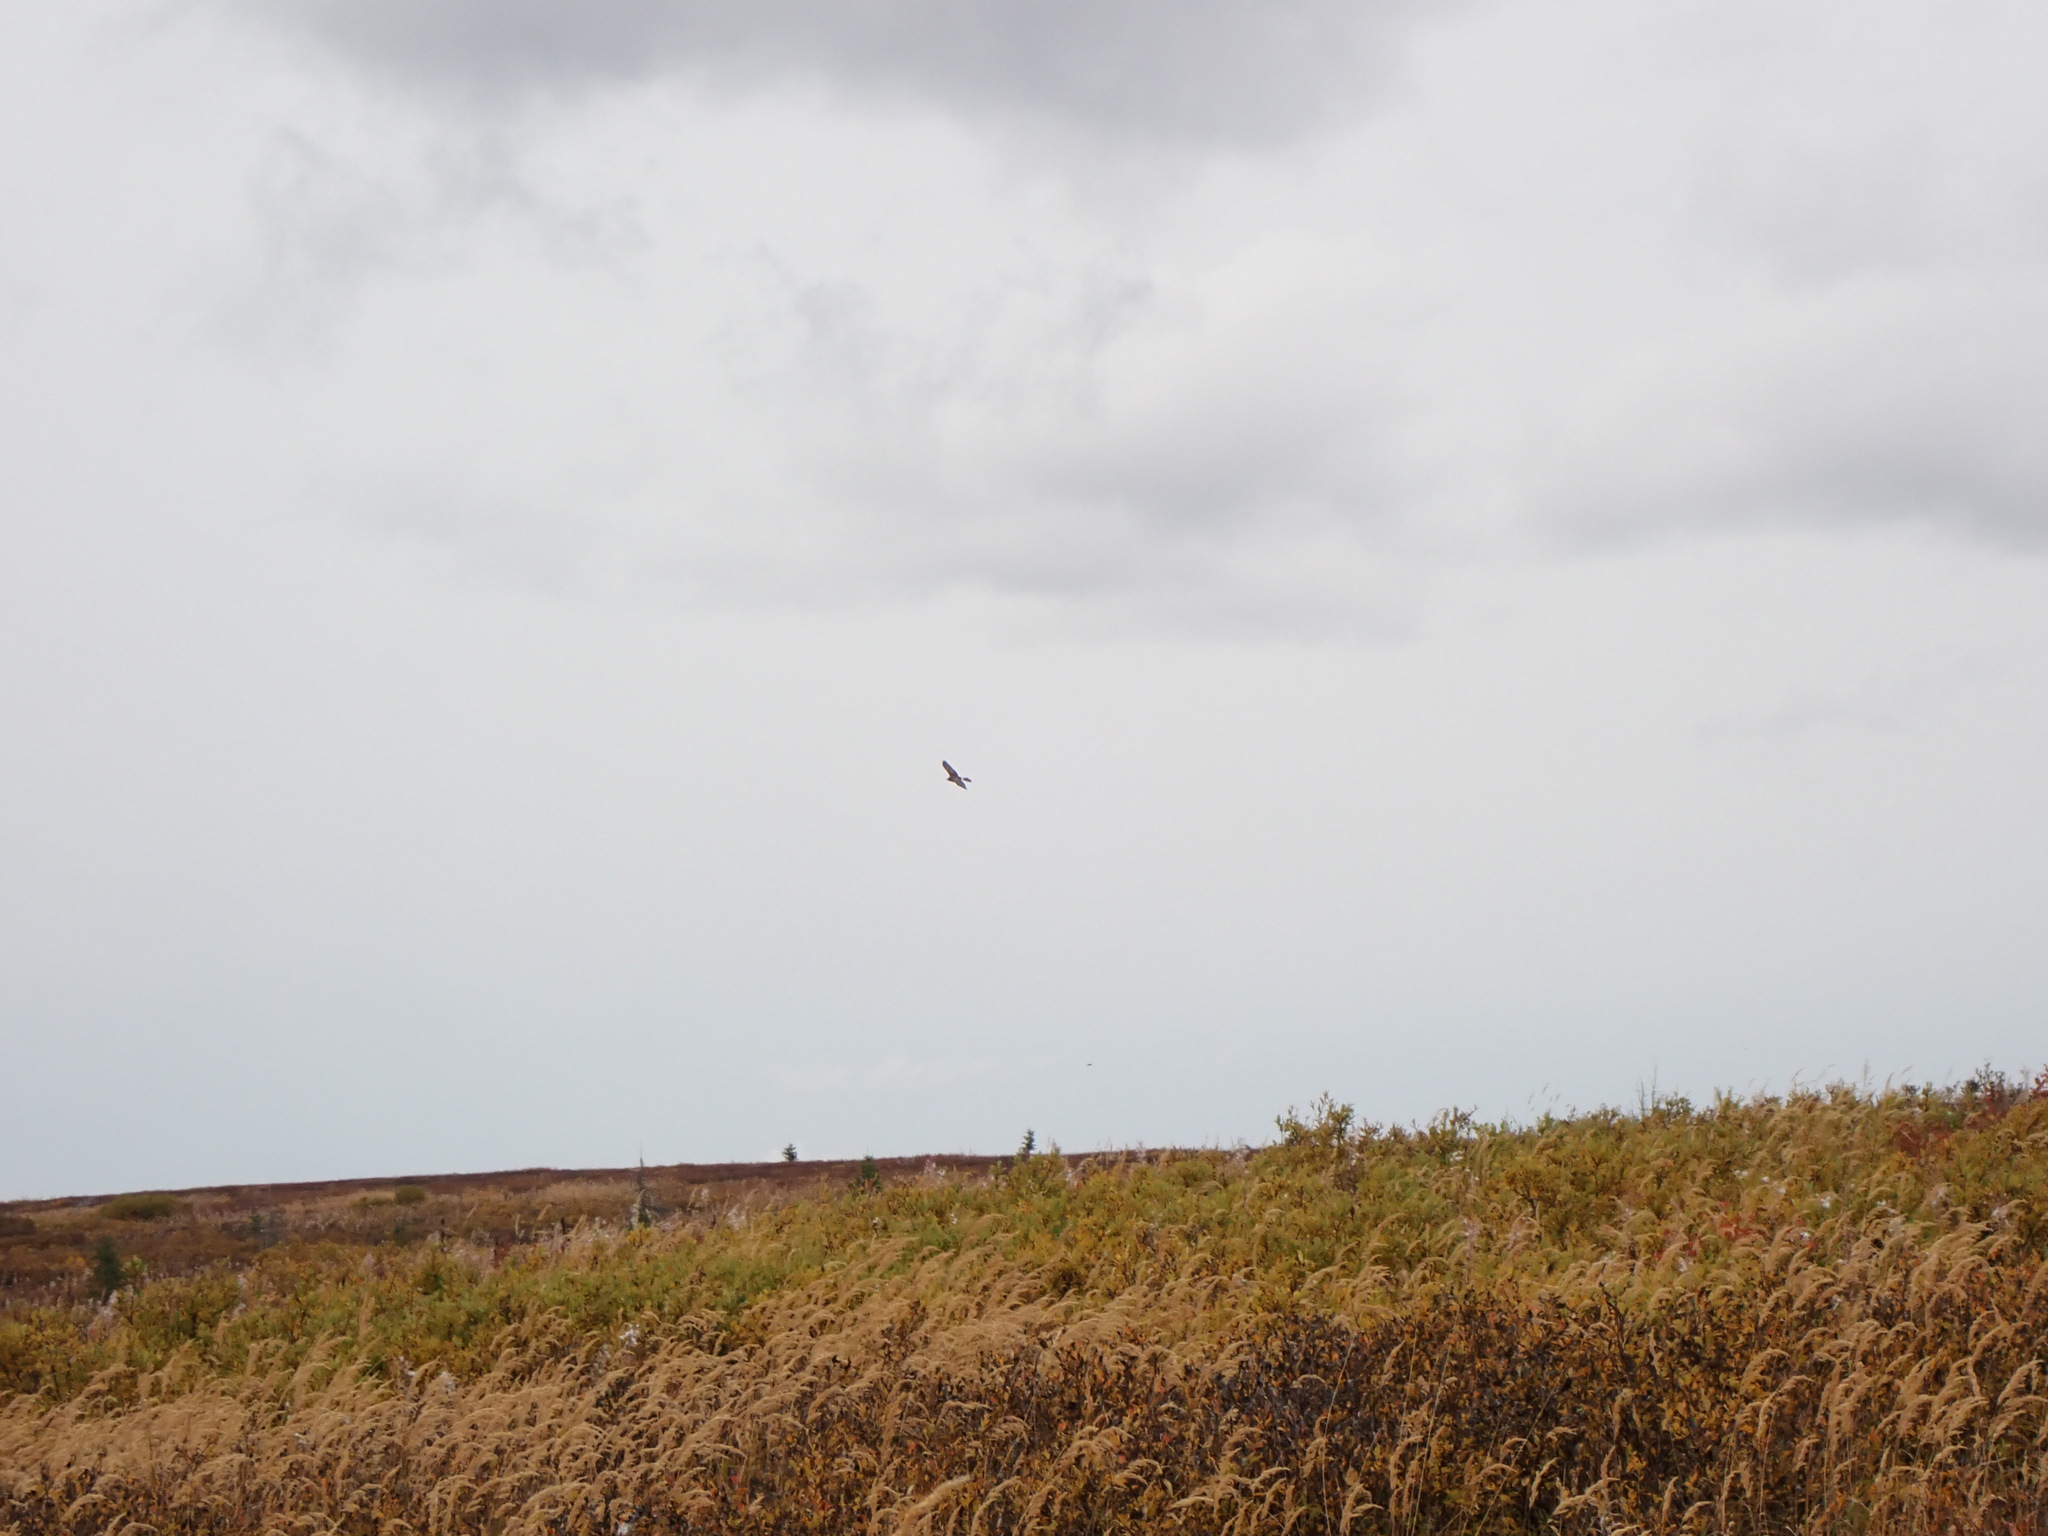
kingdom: Animalia
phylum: Chordata
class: Aves
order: Accipitriformes
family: Accipitridae
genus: Circus
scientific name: Circus cyaneus
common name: Hen harrier
